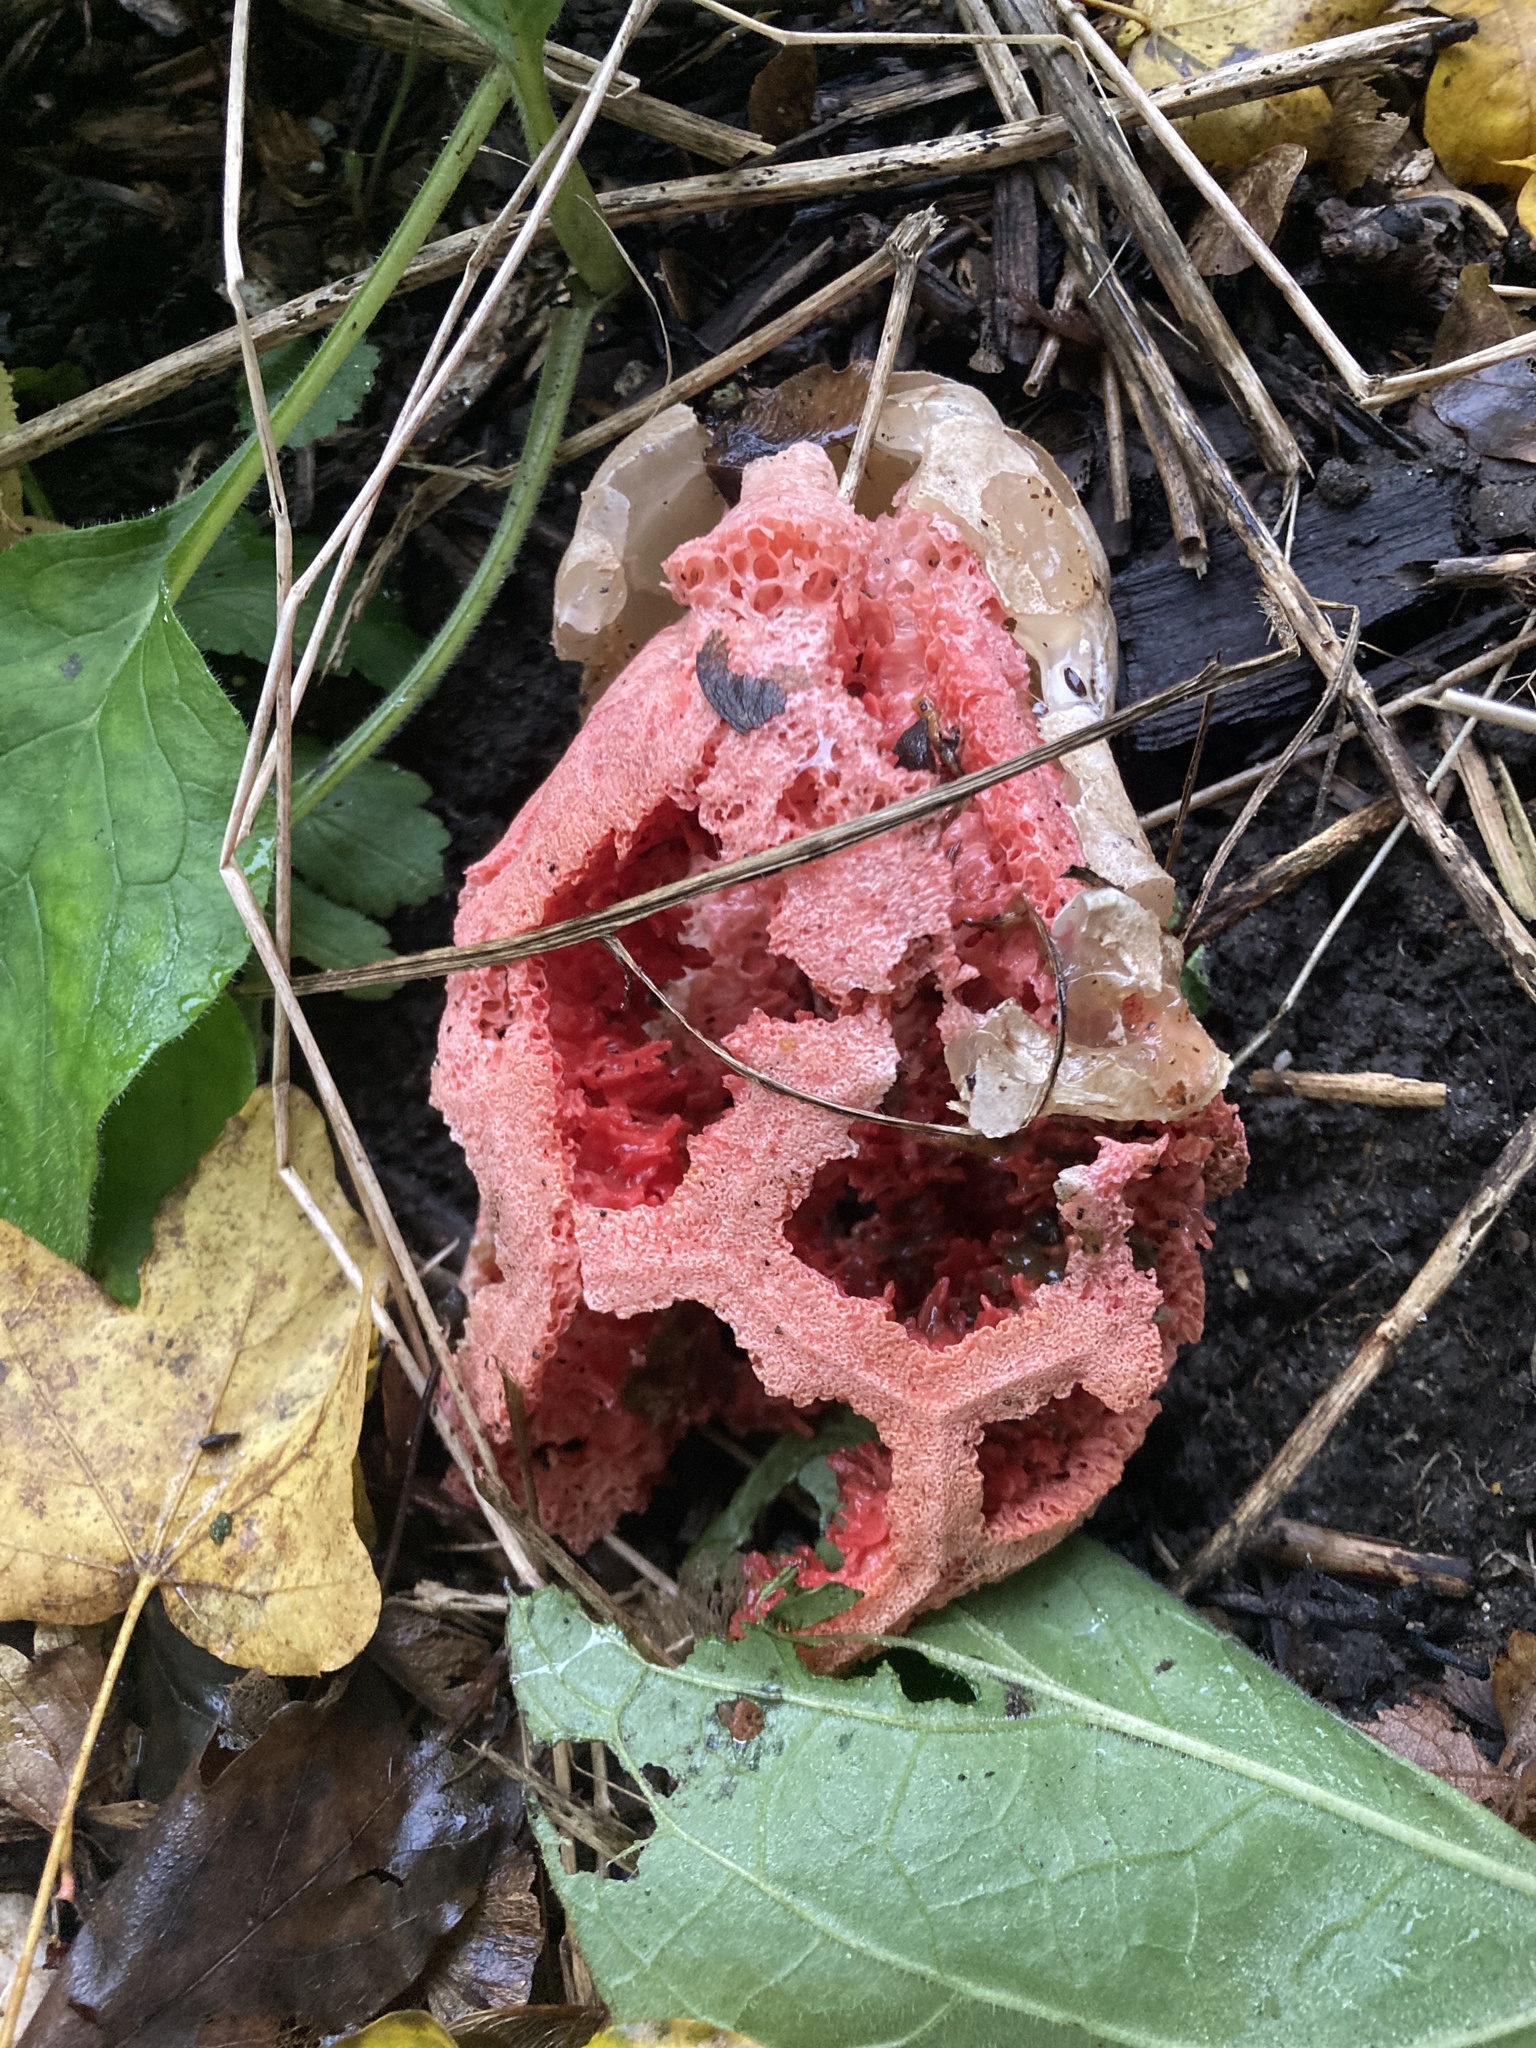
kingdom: Fungi
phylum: Basidiomycota
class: Agaricomycetes
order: Phallales
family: Phallaceae
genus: Clathrus
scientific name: Clathrus ruber
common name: Red cage
